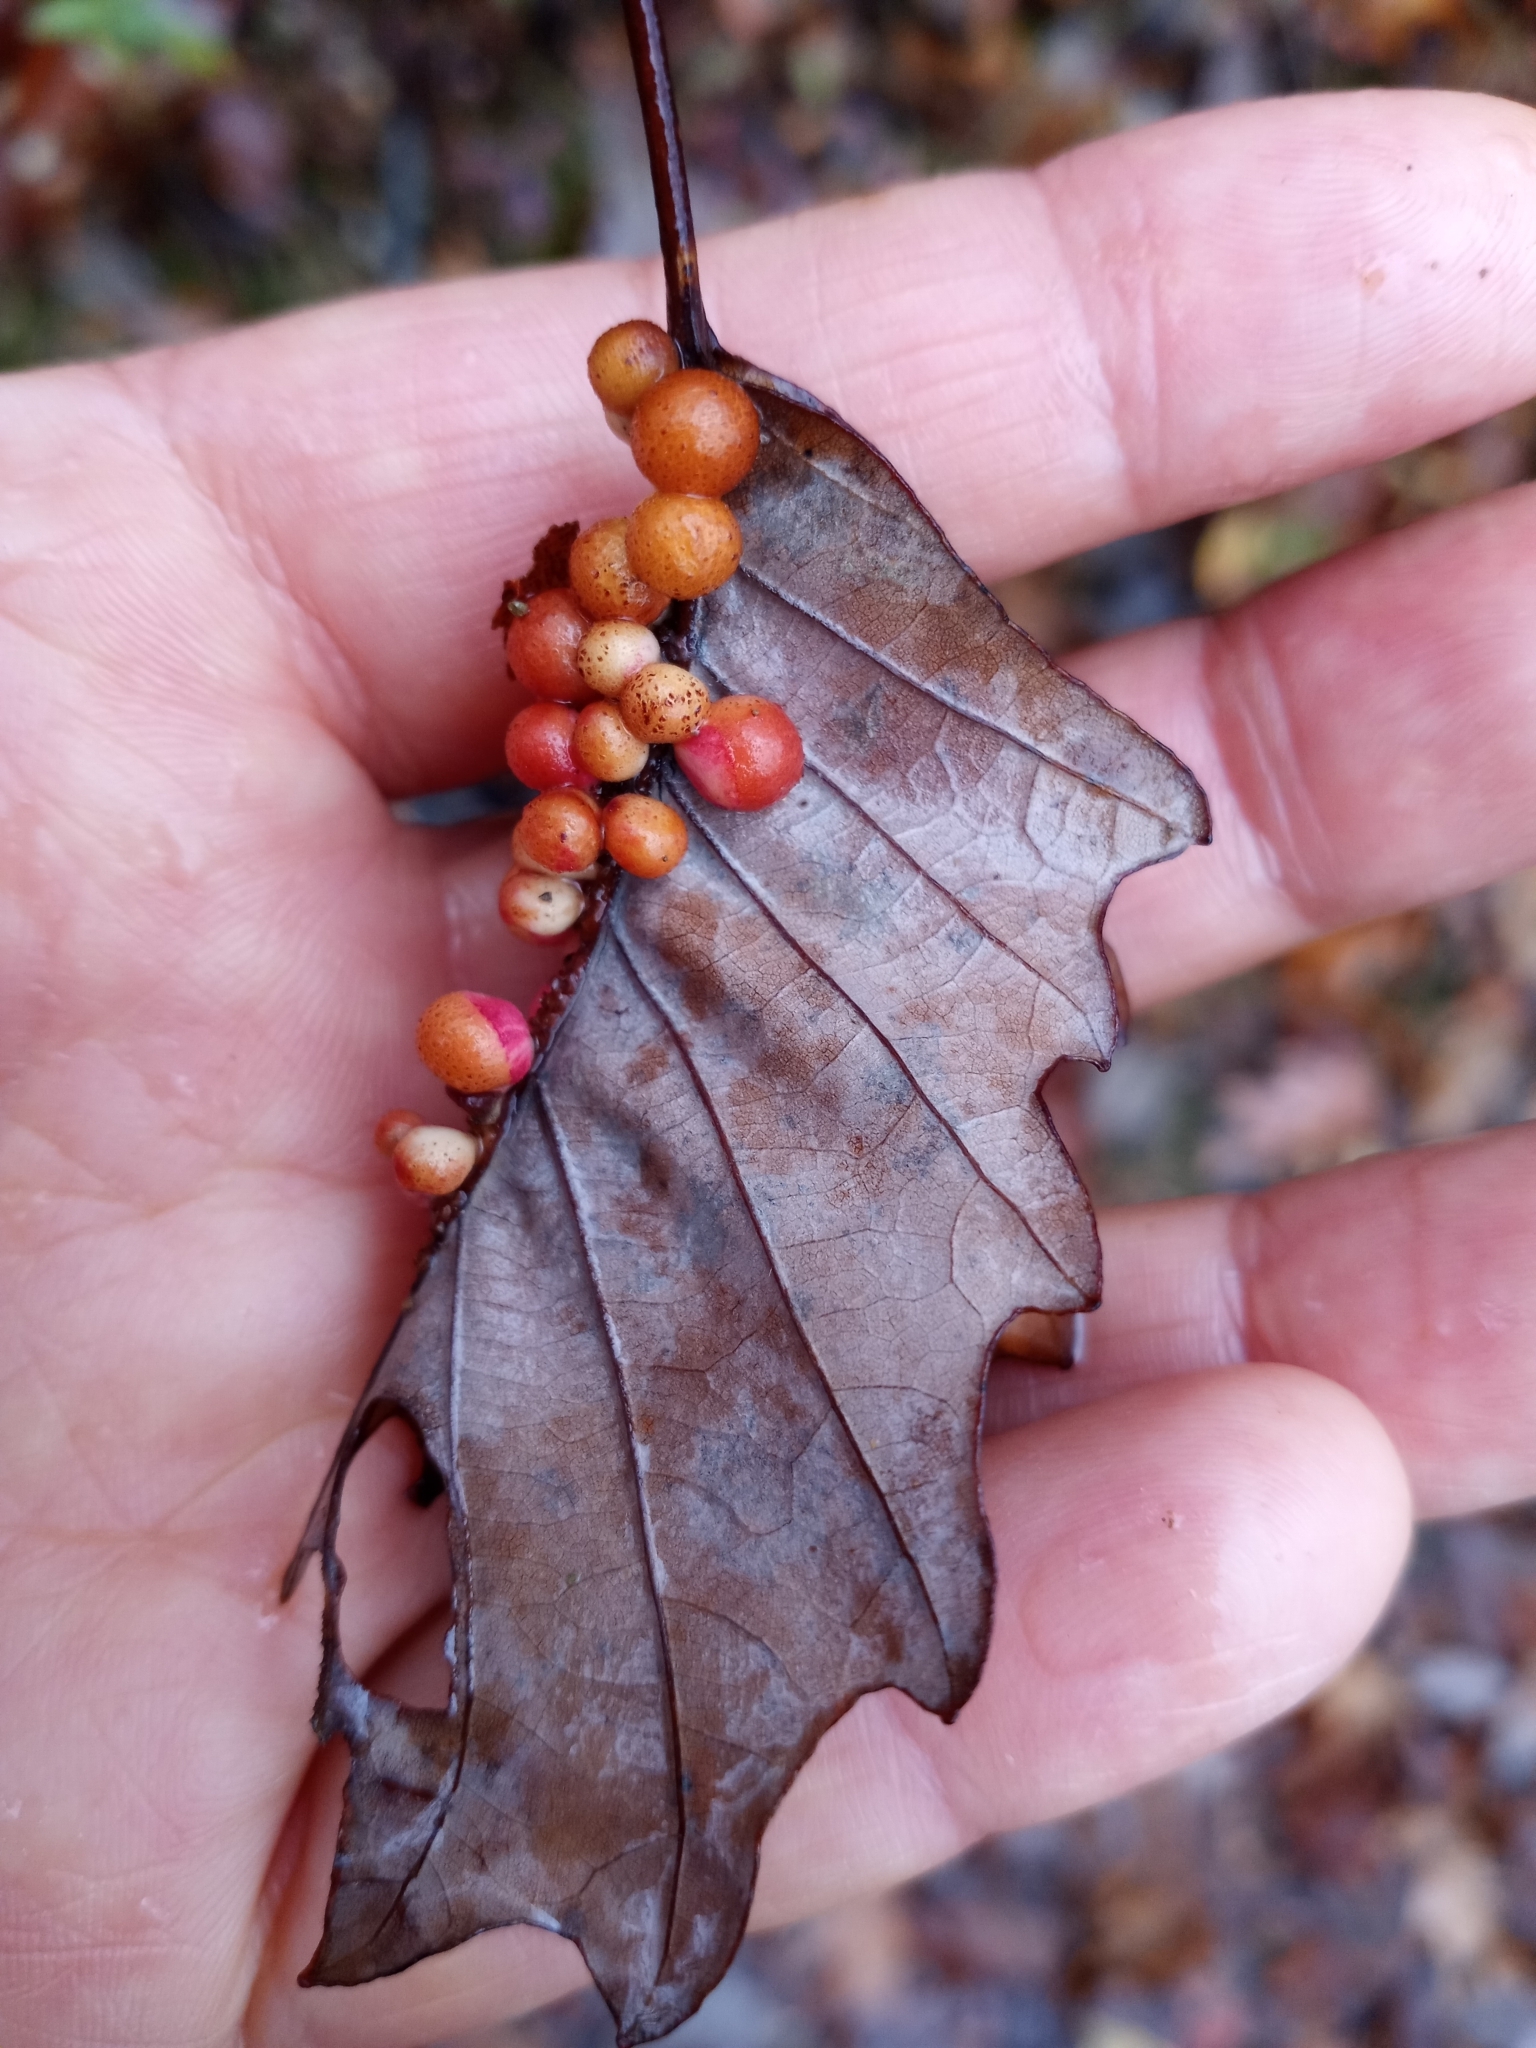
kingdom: Animalia
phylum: Arthropoda
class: Insecta
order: Hymenoptera
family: Cynipidae
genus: Andricus
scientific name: Andricus
